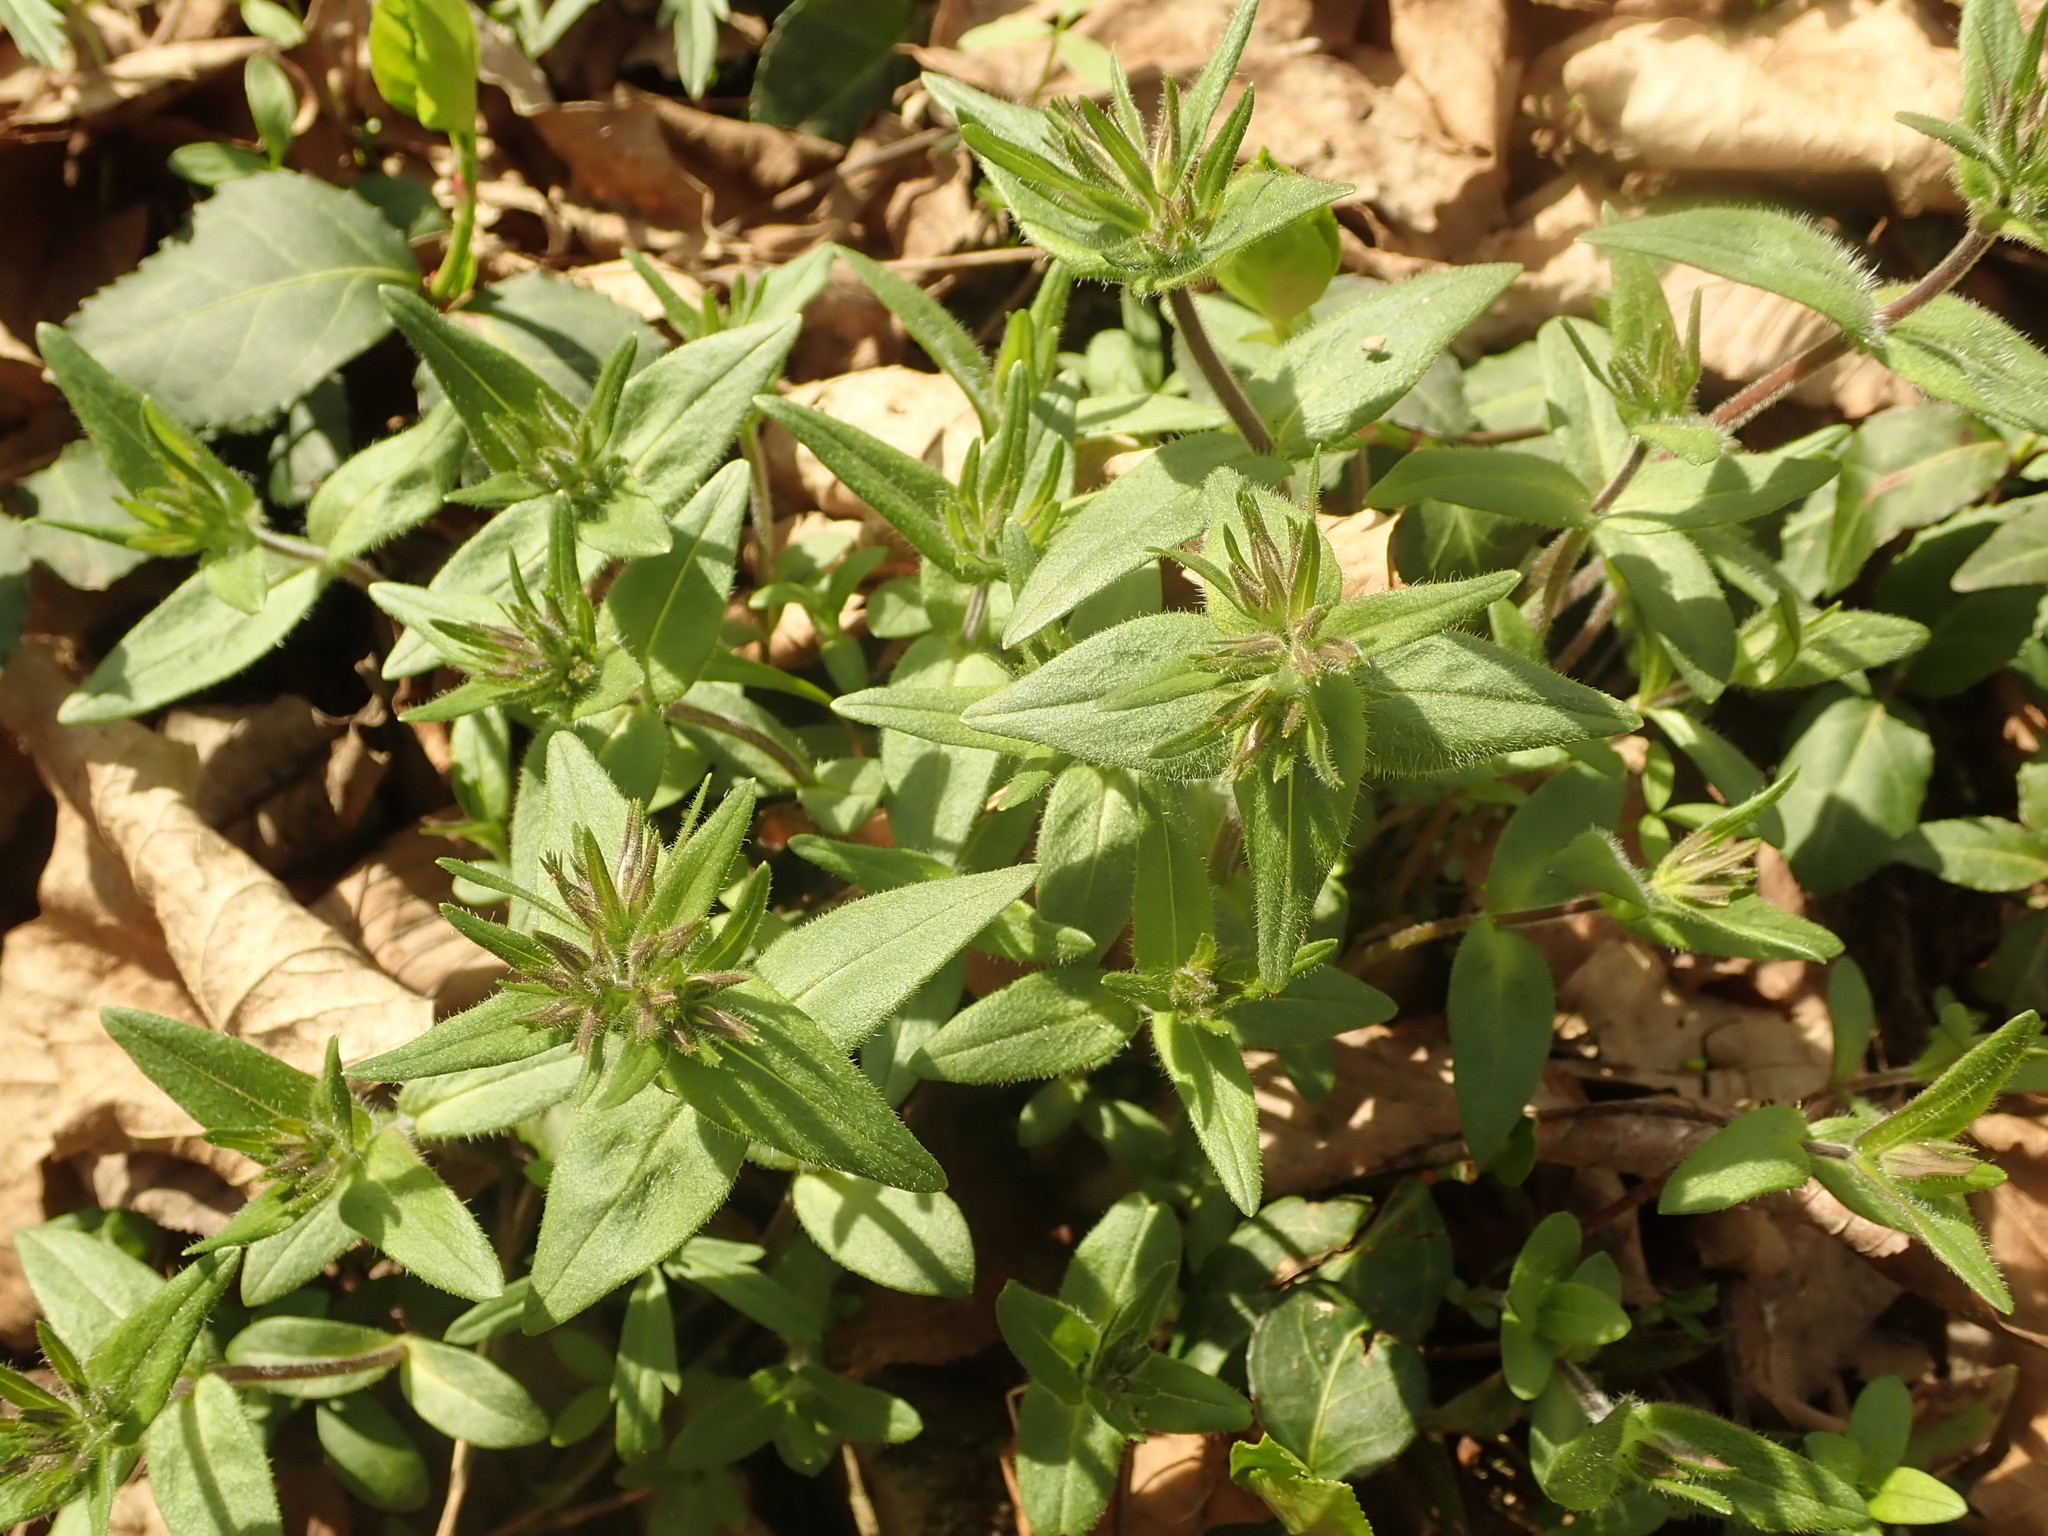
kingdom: Plantae
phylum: Tracheophyta
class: Magnoliopsida
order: Ericales
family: Polemoniaceae
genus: Phlox
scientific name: Phlox divaricata
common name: Blue phlox
